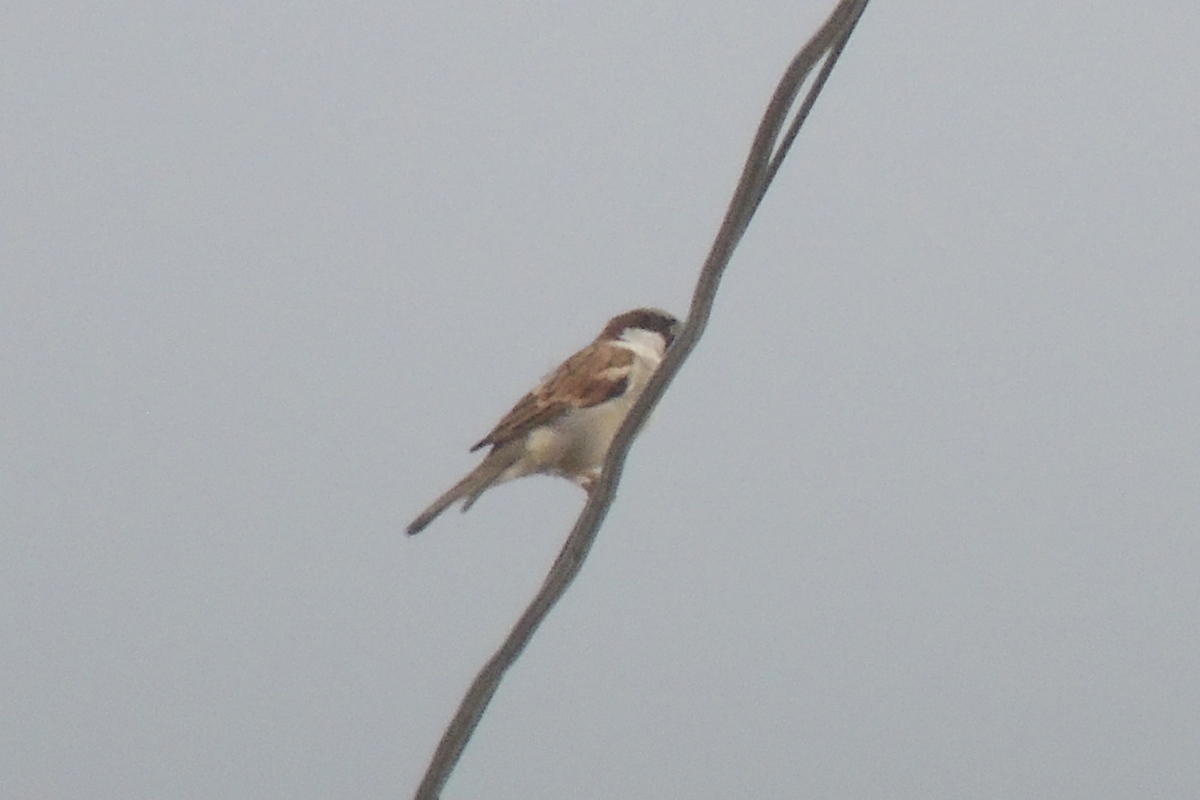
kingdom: Animalia
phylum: Chordata
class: Aves
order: Passeriformes
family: Passeridae
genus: Passer
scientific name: Passer domesticus
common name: House sparrow
